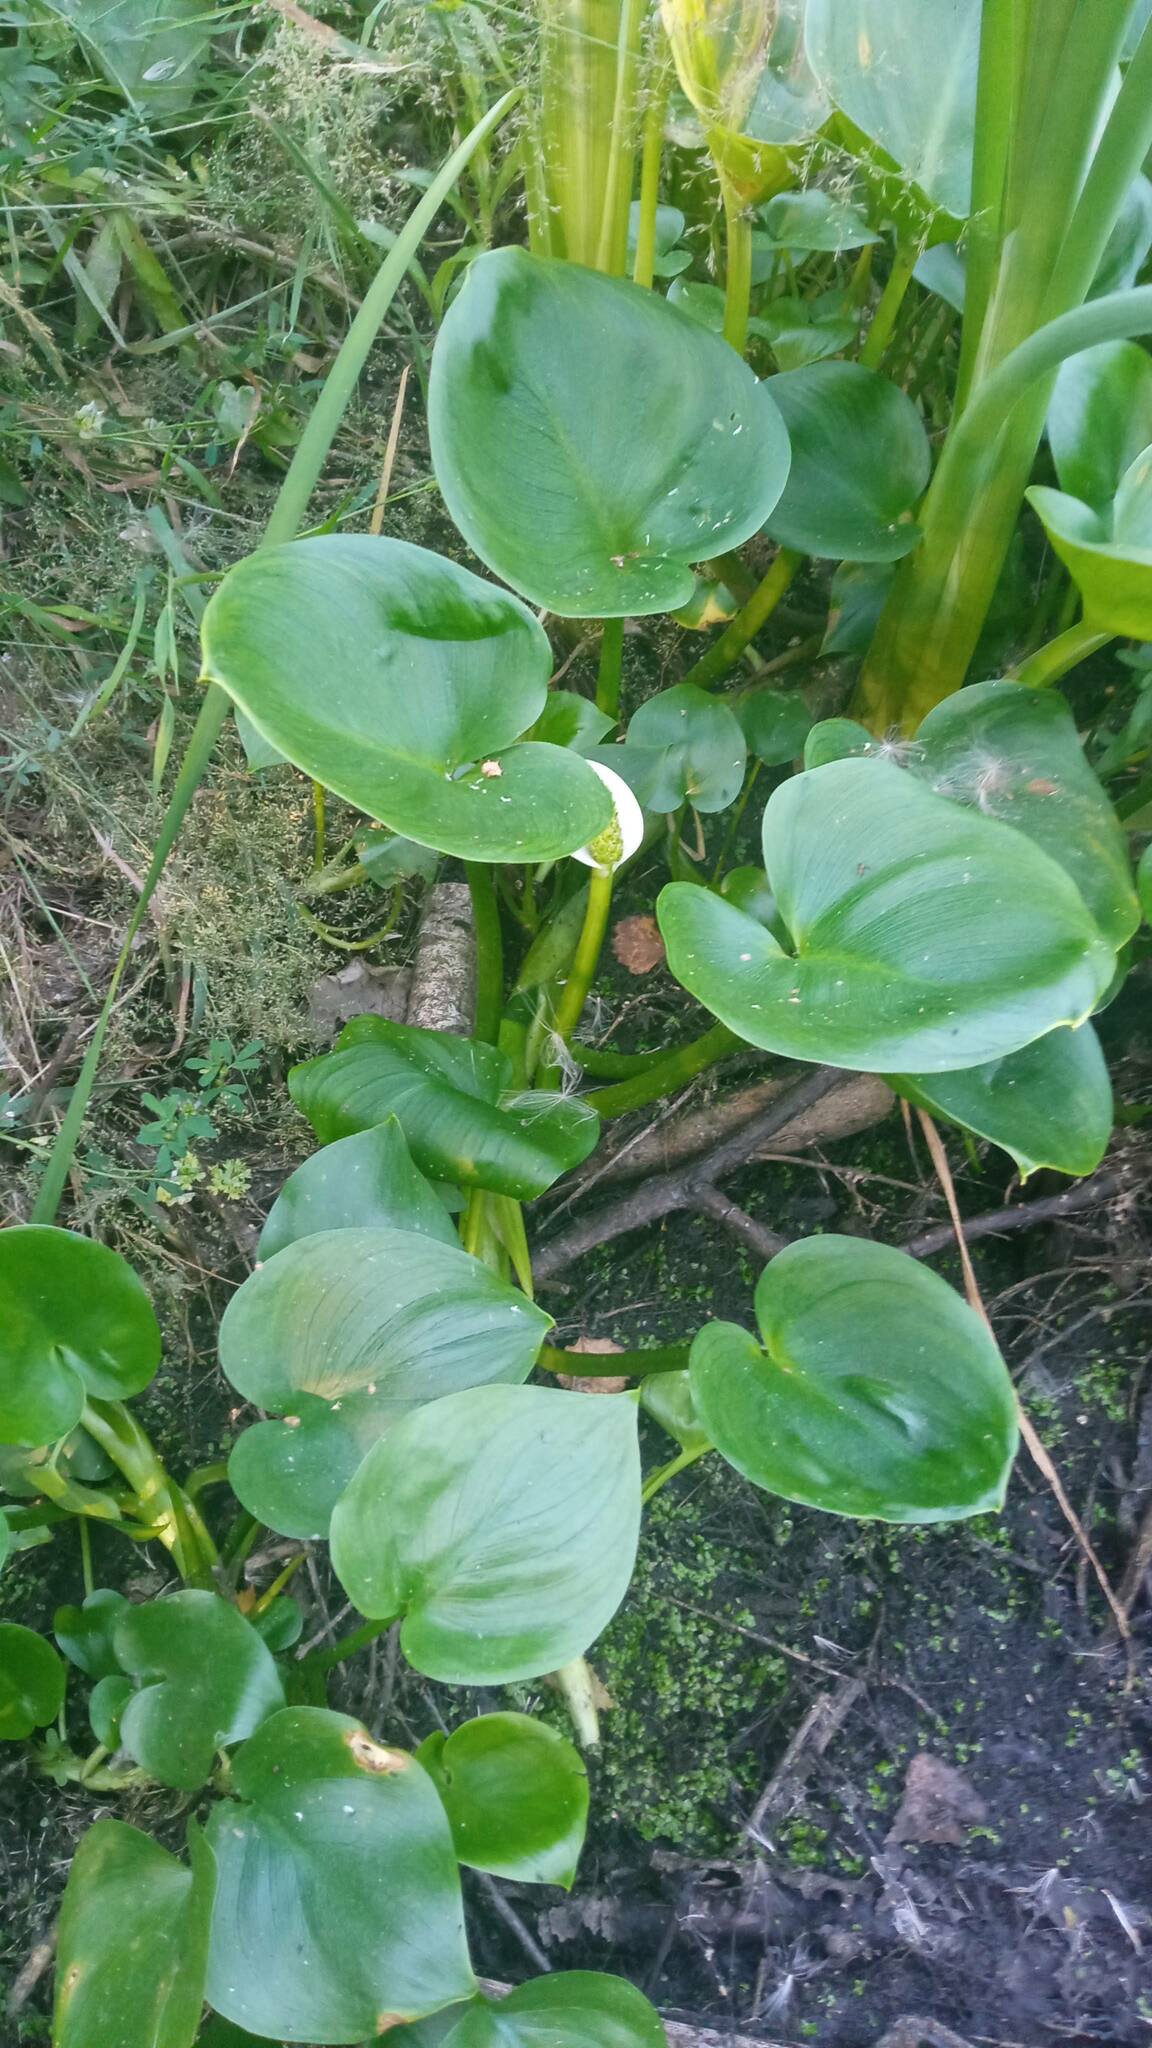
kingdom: Plantae
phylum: Tracheophyta
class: Liliopsida
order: Alismatales
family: Araceae
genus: Calla
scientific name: Calla palustris
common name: Bog arum
